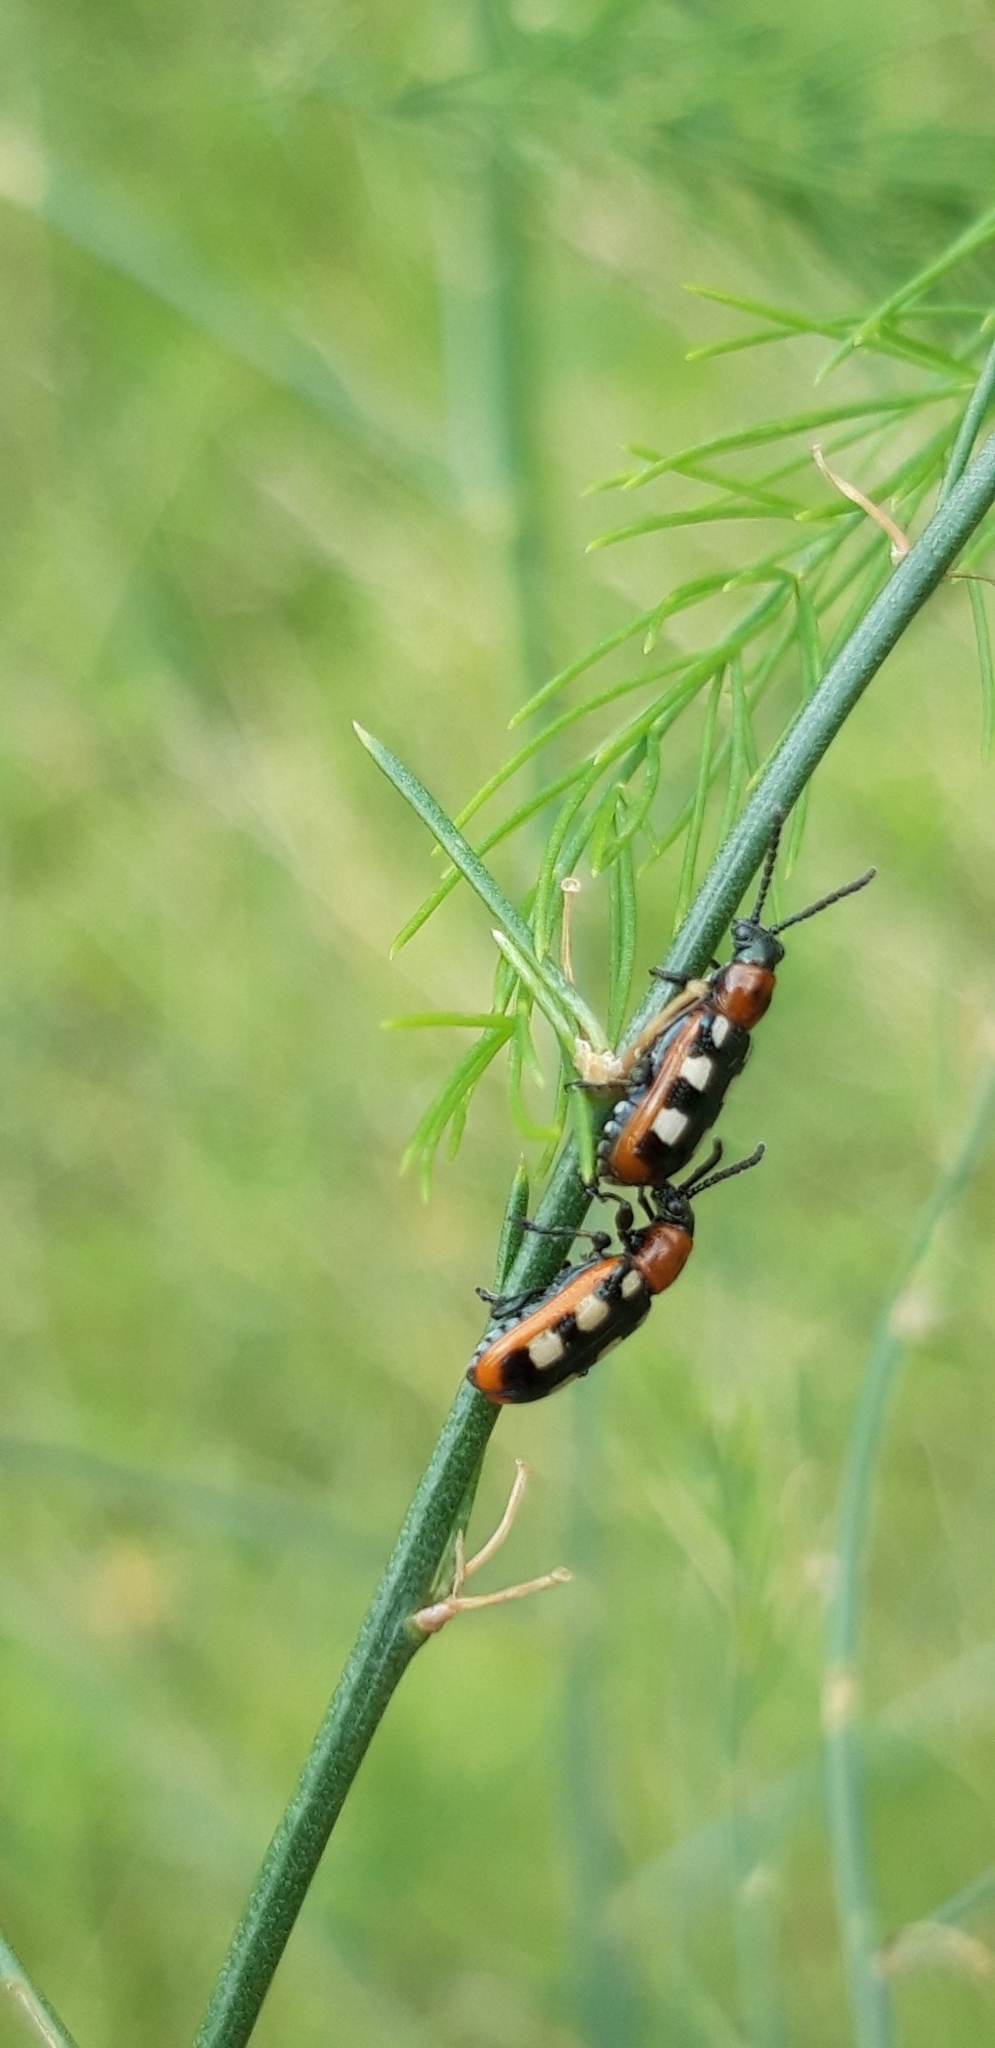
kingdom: Animalia
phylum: Arthropoda
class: Insecta
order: Coleoptera
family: Chrysomelidae
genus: Crioceris
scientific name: Crioceris asparagi
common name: Asparagus beetle
